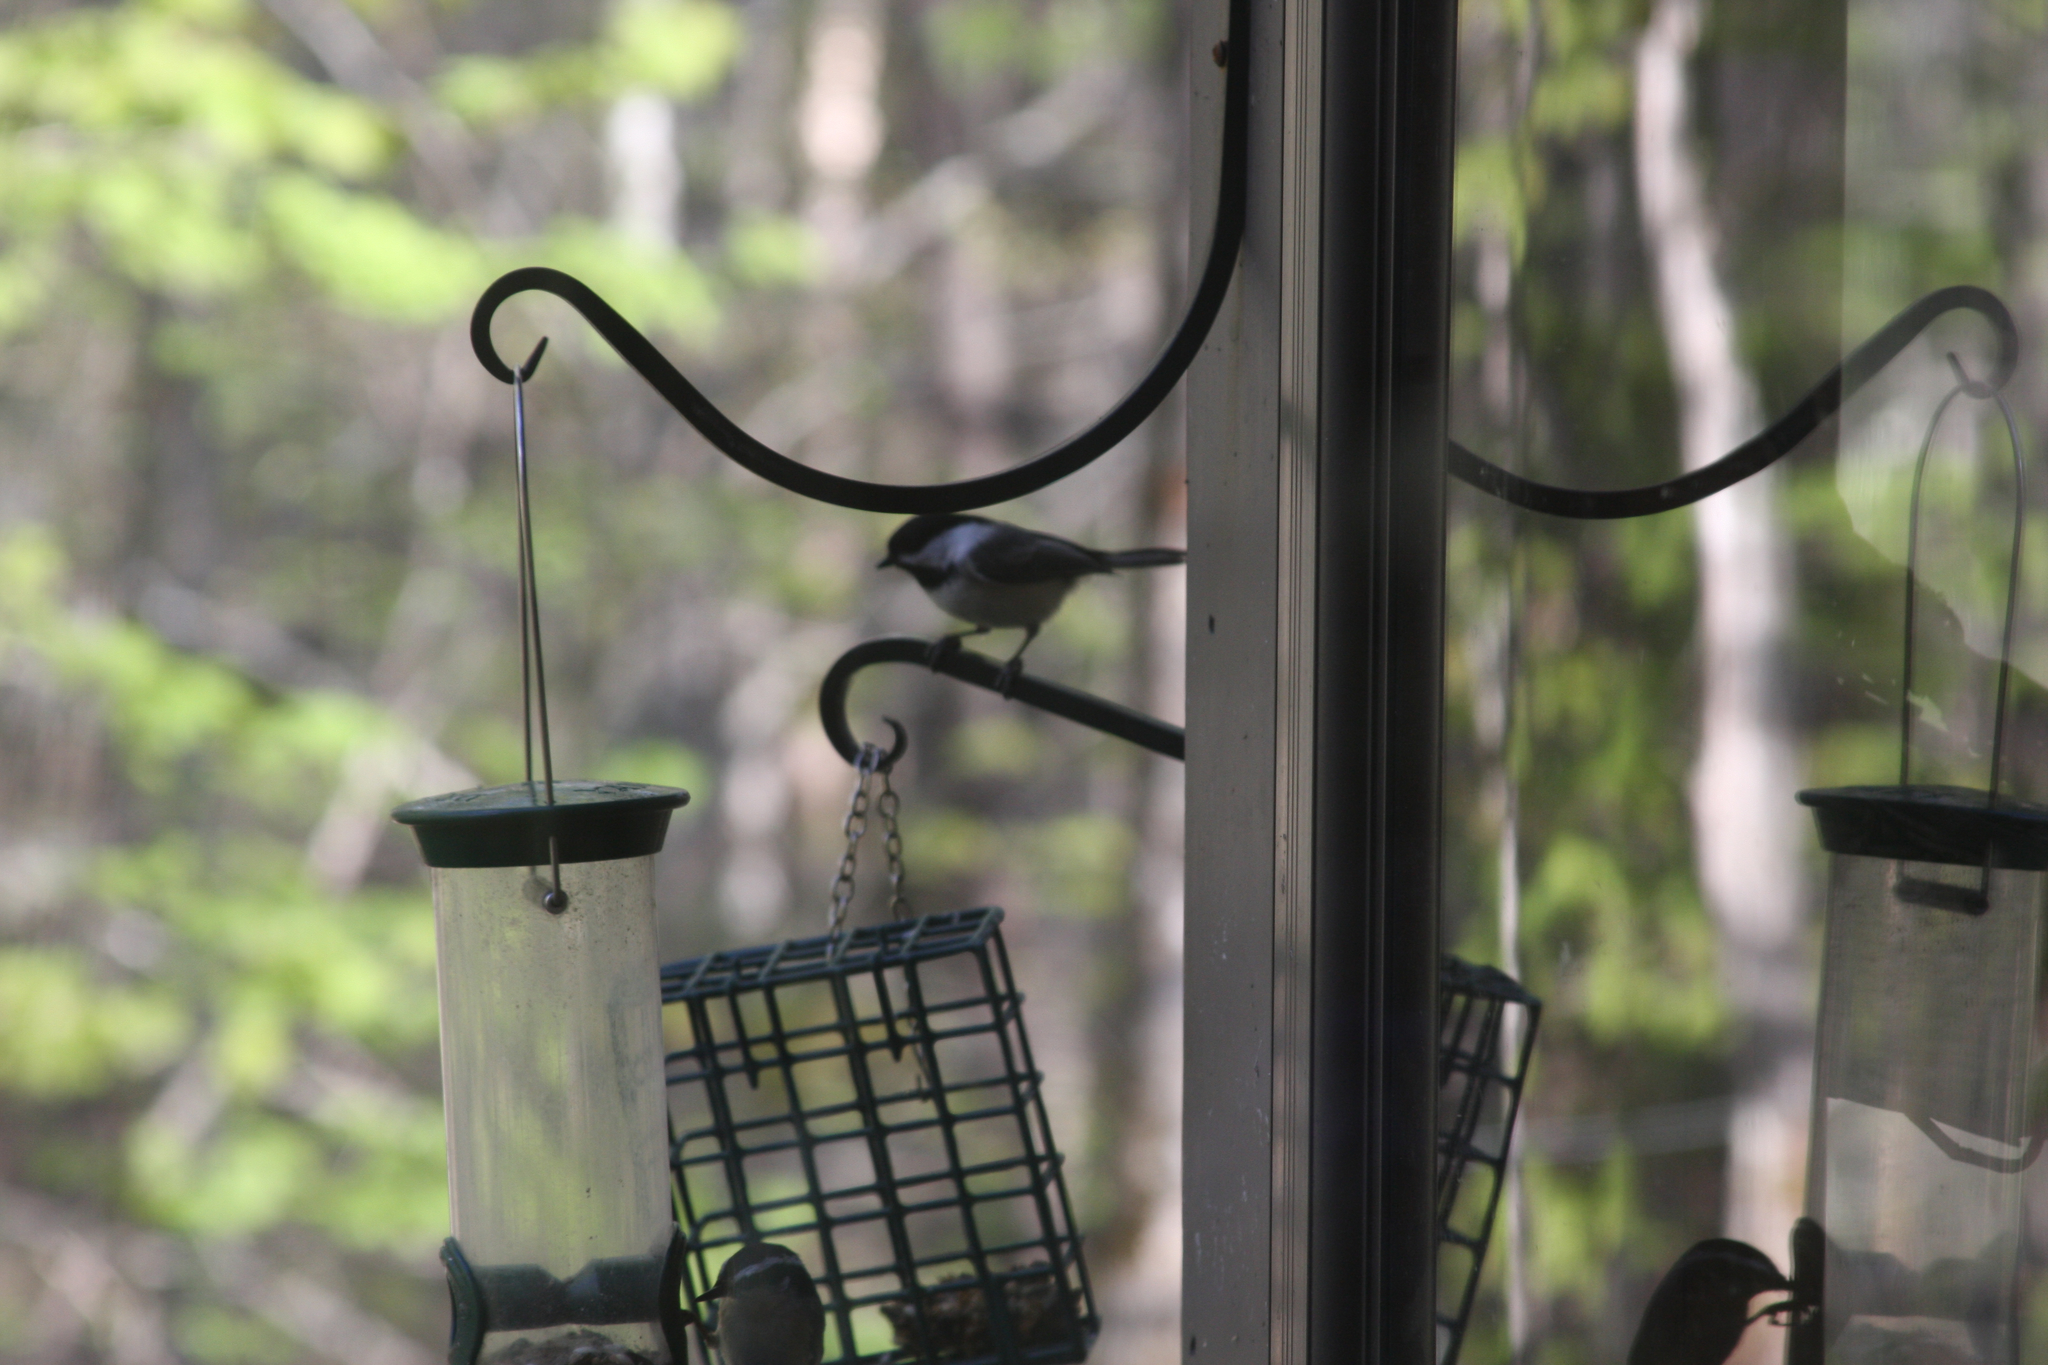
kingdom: Animalia
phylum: Chordata
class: Aves
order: Passeriformes
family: Paridae
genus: Poecile
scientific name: Poecile atricapillus
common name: Black-capped chickadee
